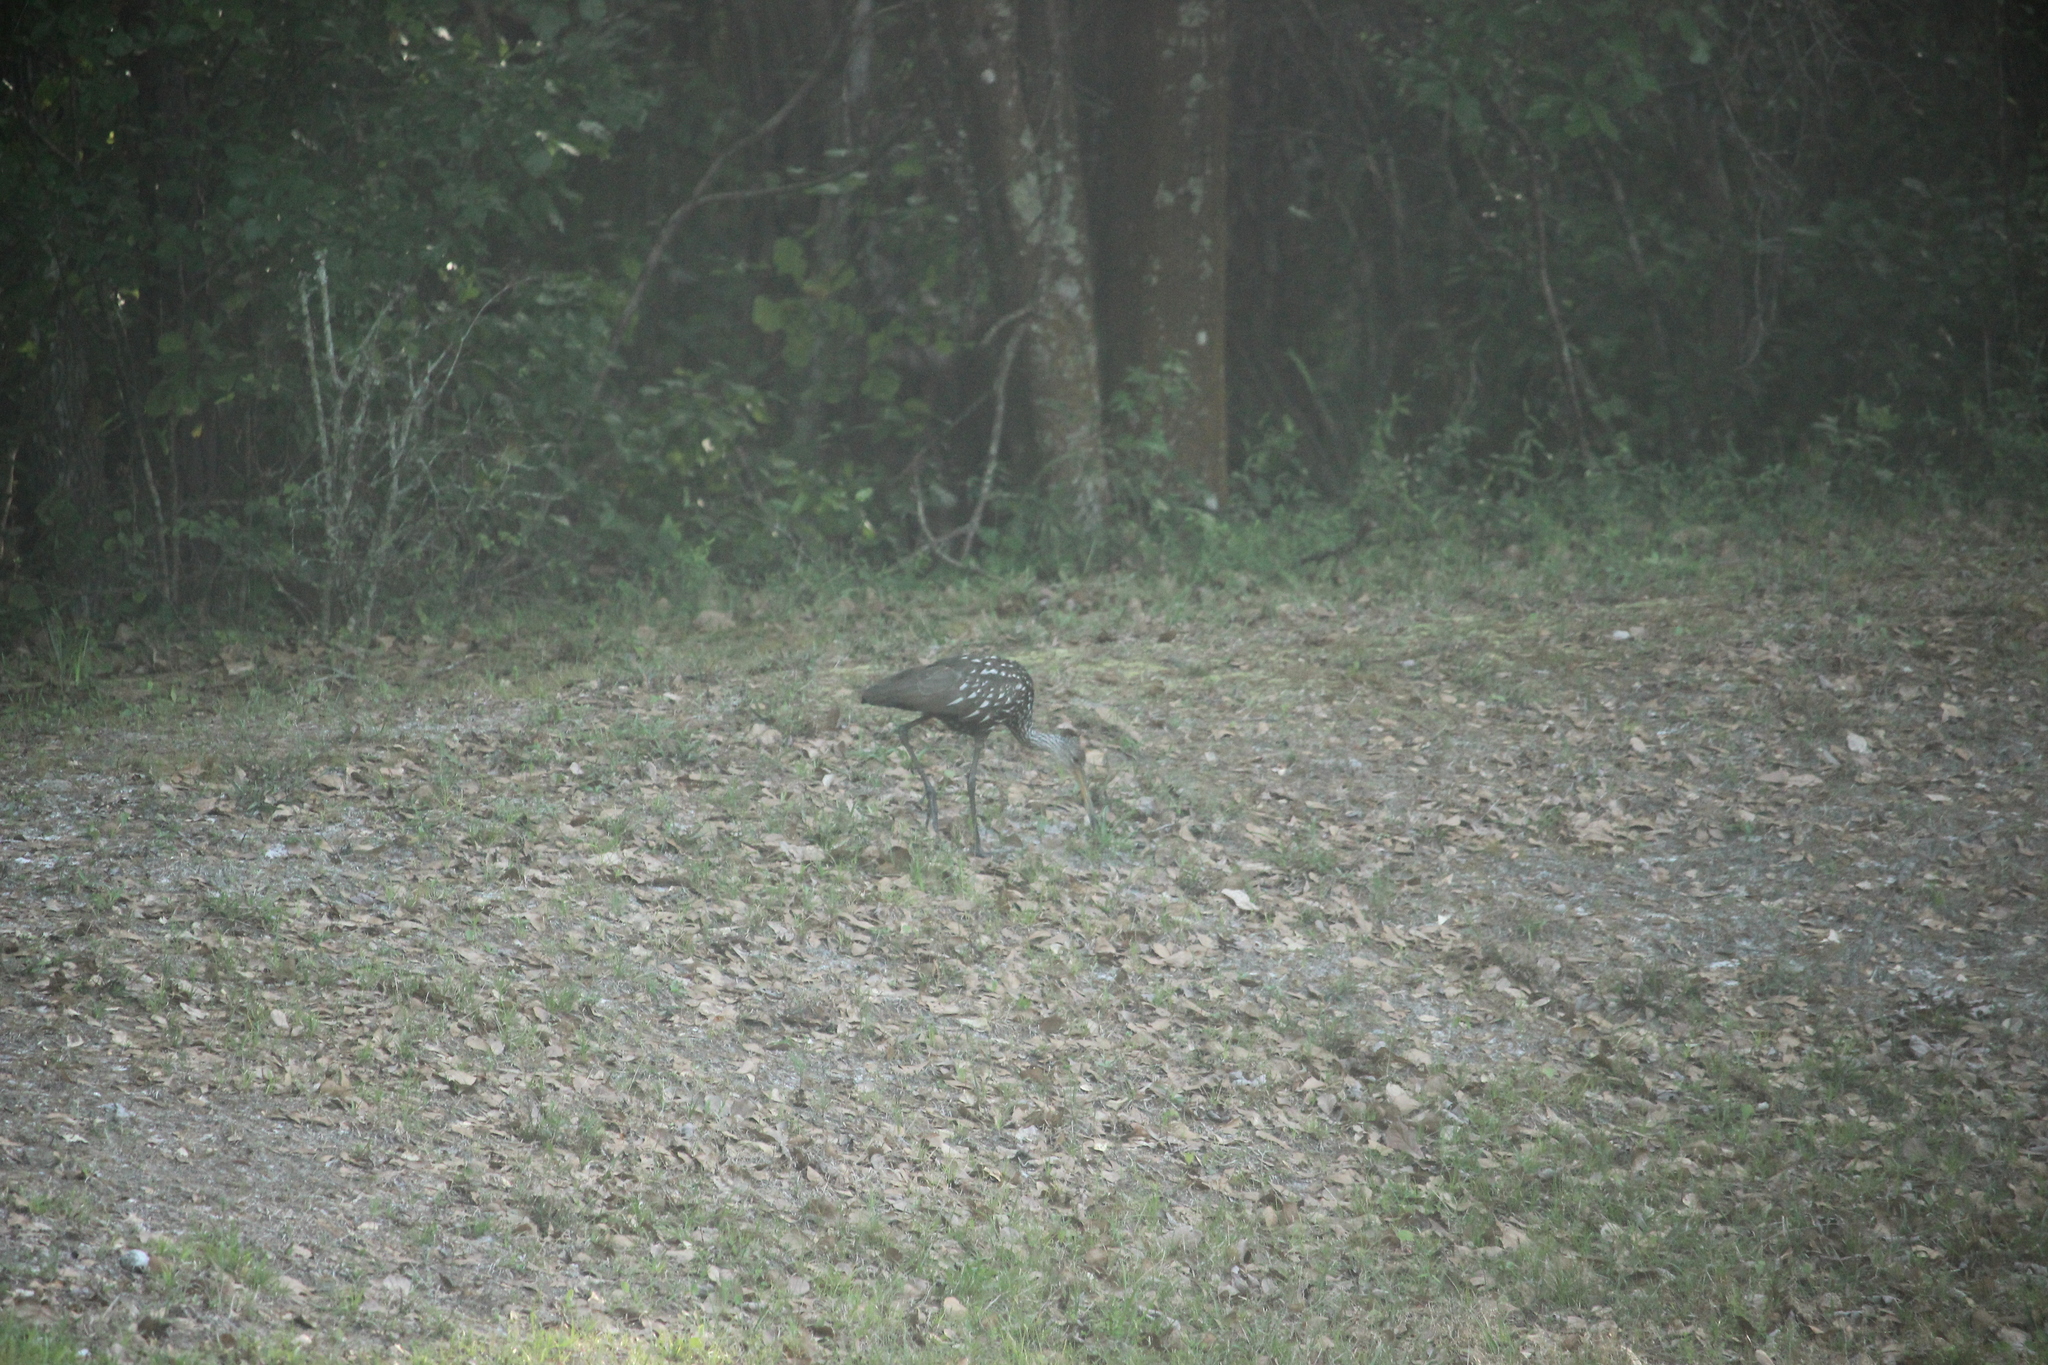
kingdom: Animalia
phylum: Chordata
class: Aves
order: Gruiformes
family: Aramidae
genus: Aramus
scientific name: Aramus guarauna
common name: Limpkin
